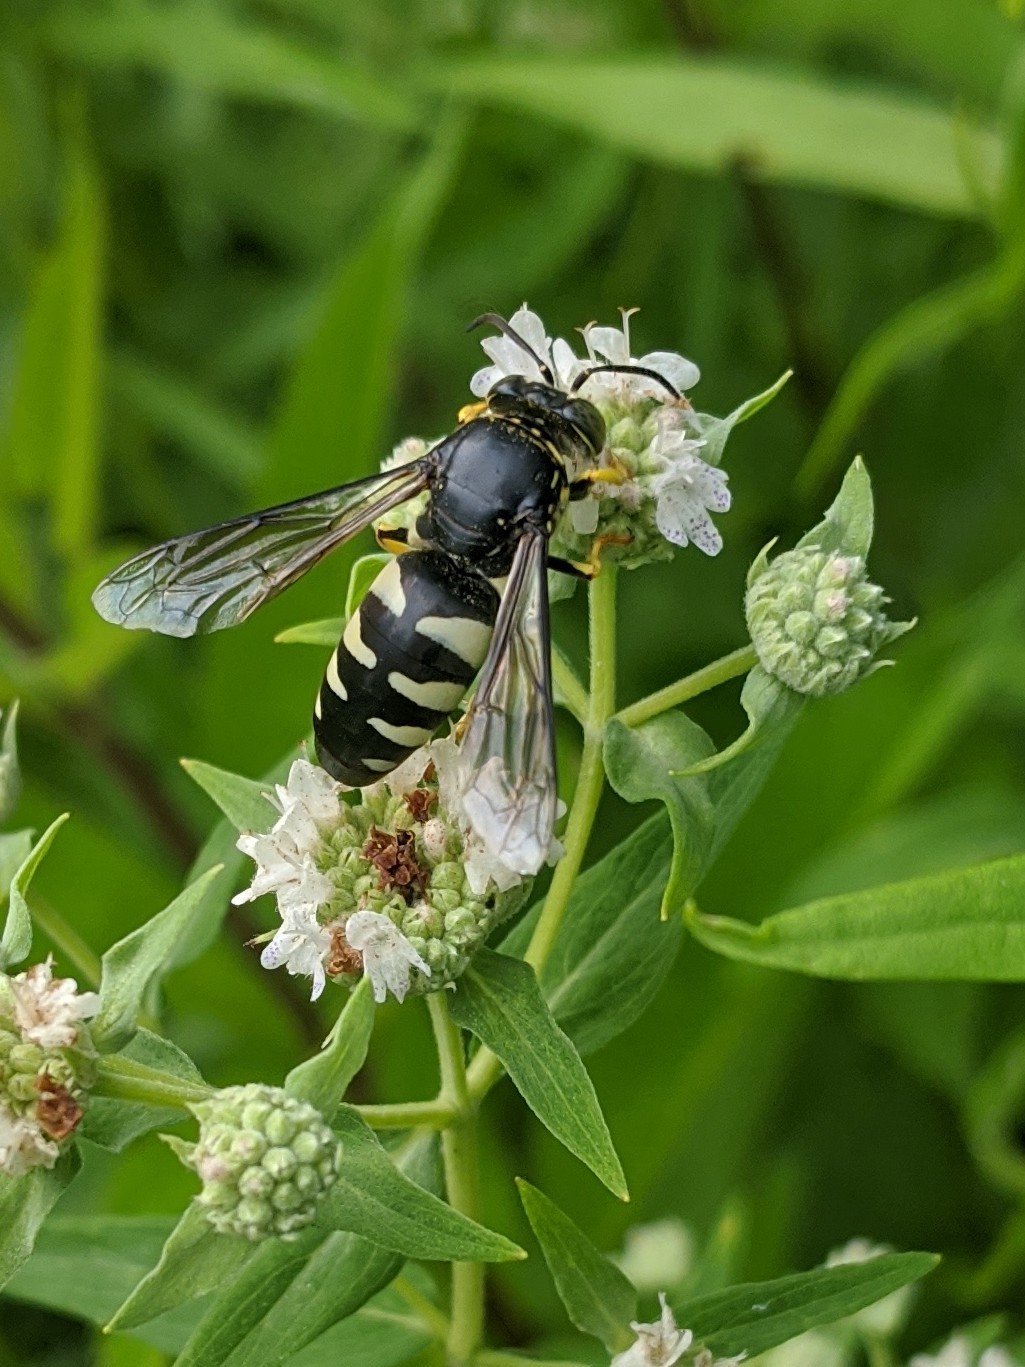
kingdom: Animalia
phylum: Arthropoda
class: Insecta
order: Hymenoptera
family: Crabronidae
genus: Bicyrtes
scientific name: Bicyrtes quadrifasciatus
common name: Four-banded stink bug hunter wasp
